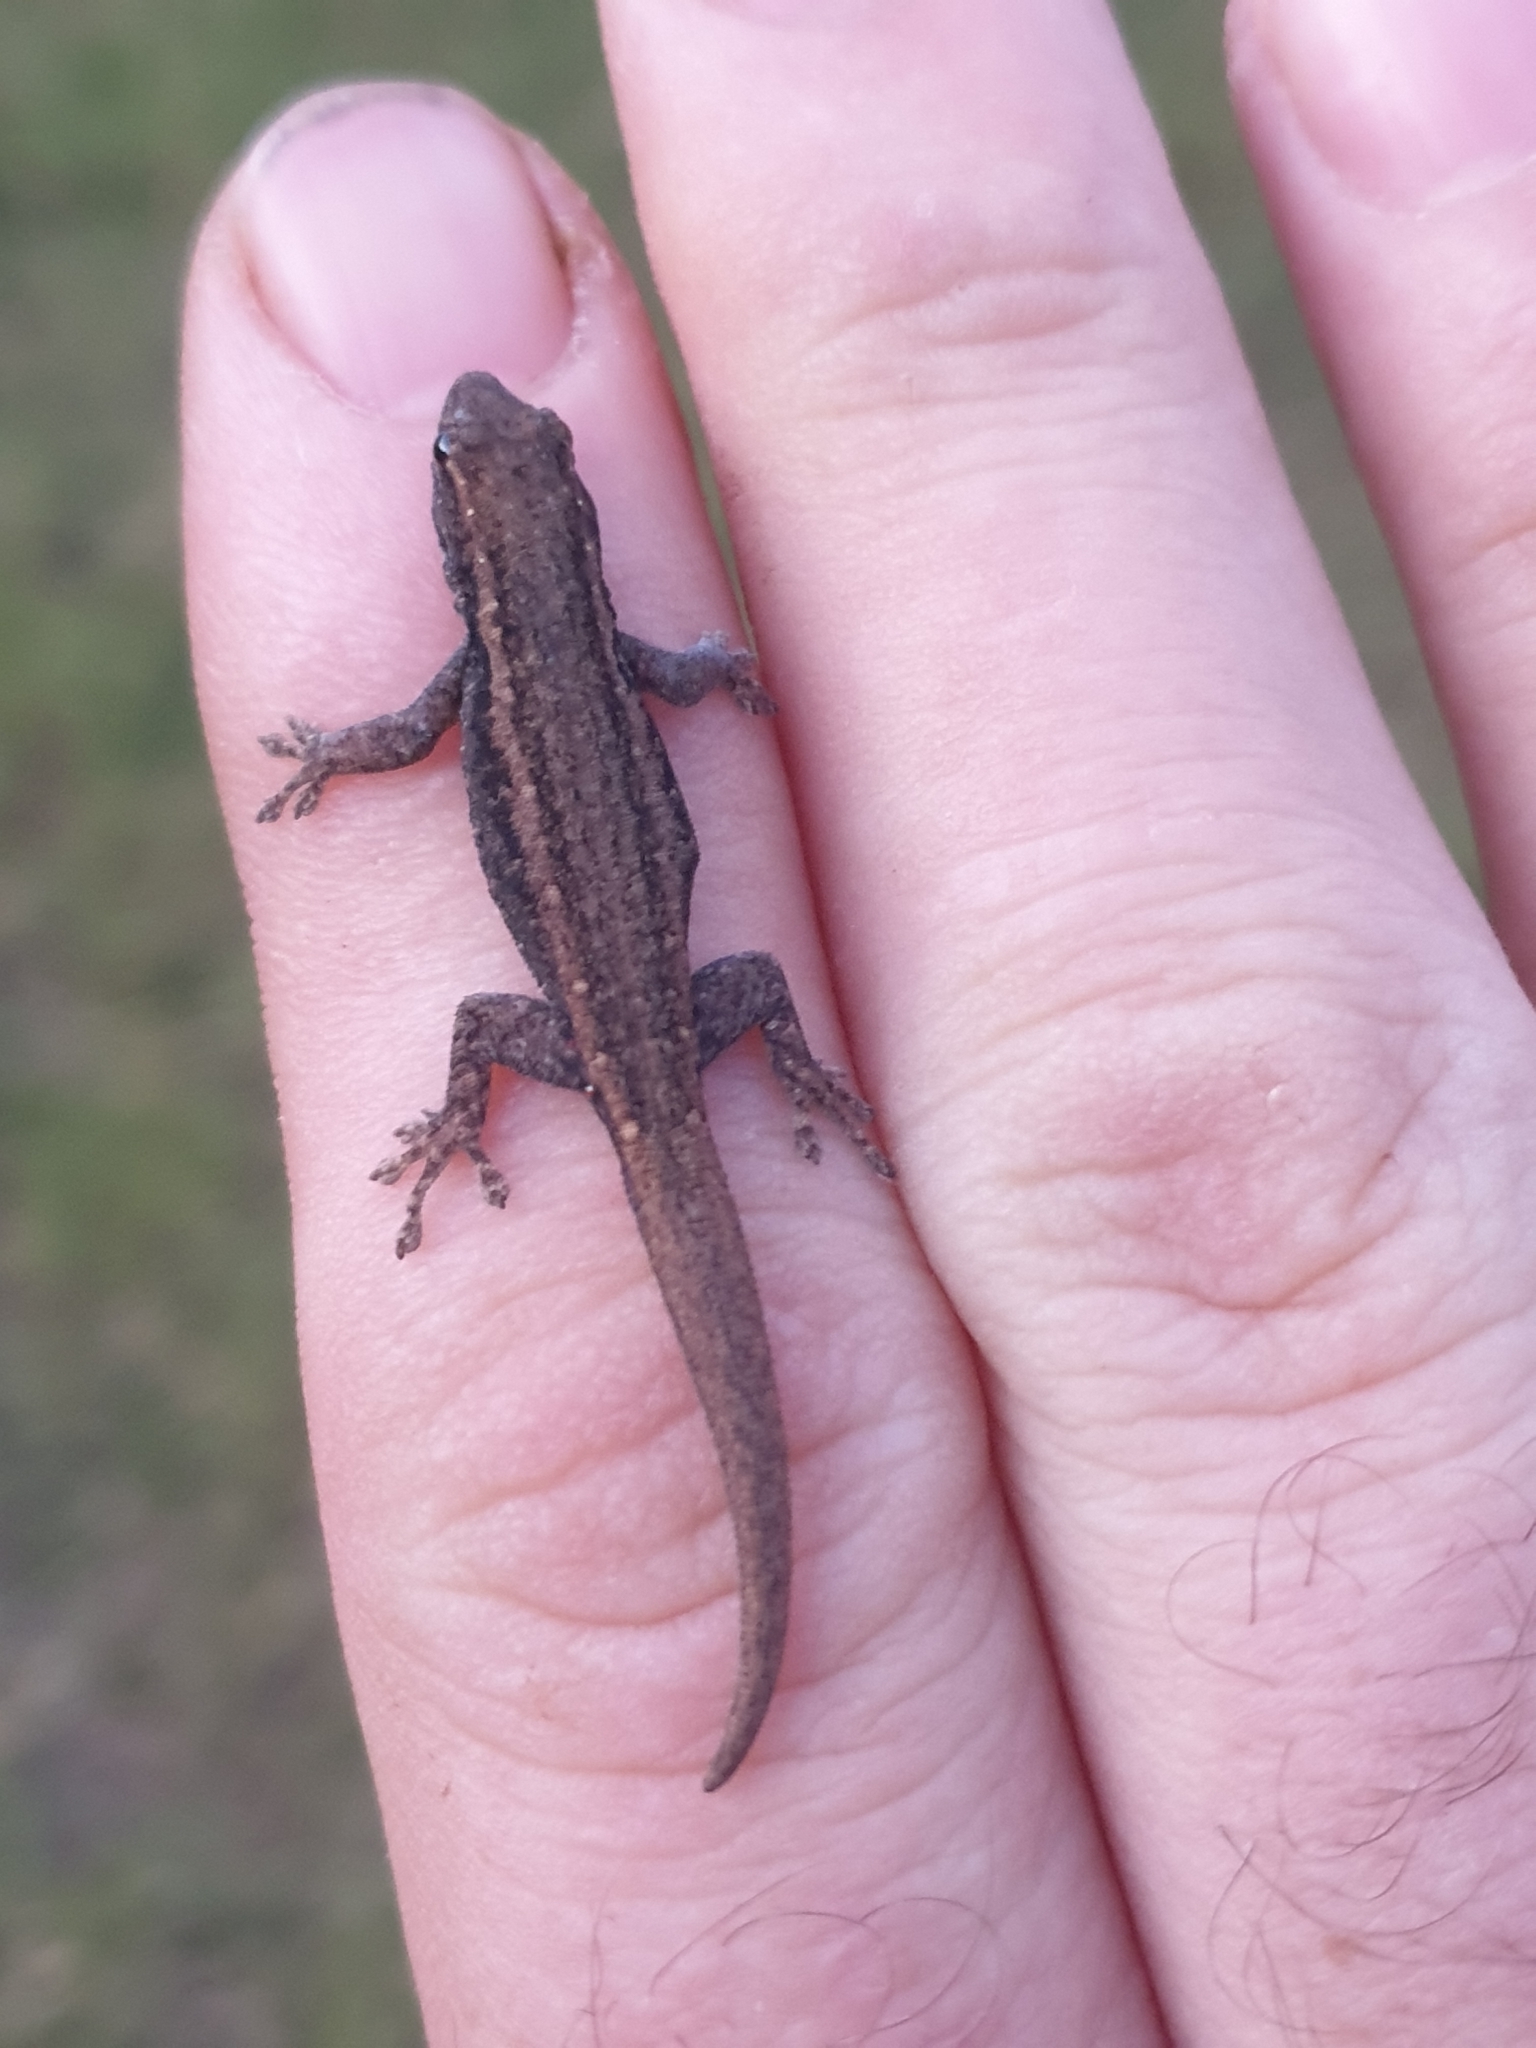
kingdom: Animalia
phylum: Chordata
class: Squamata
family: Gekkonidae
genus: Lygodactylus
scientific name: Lygodactylus capensis
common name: Cape dwarf gecko
